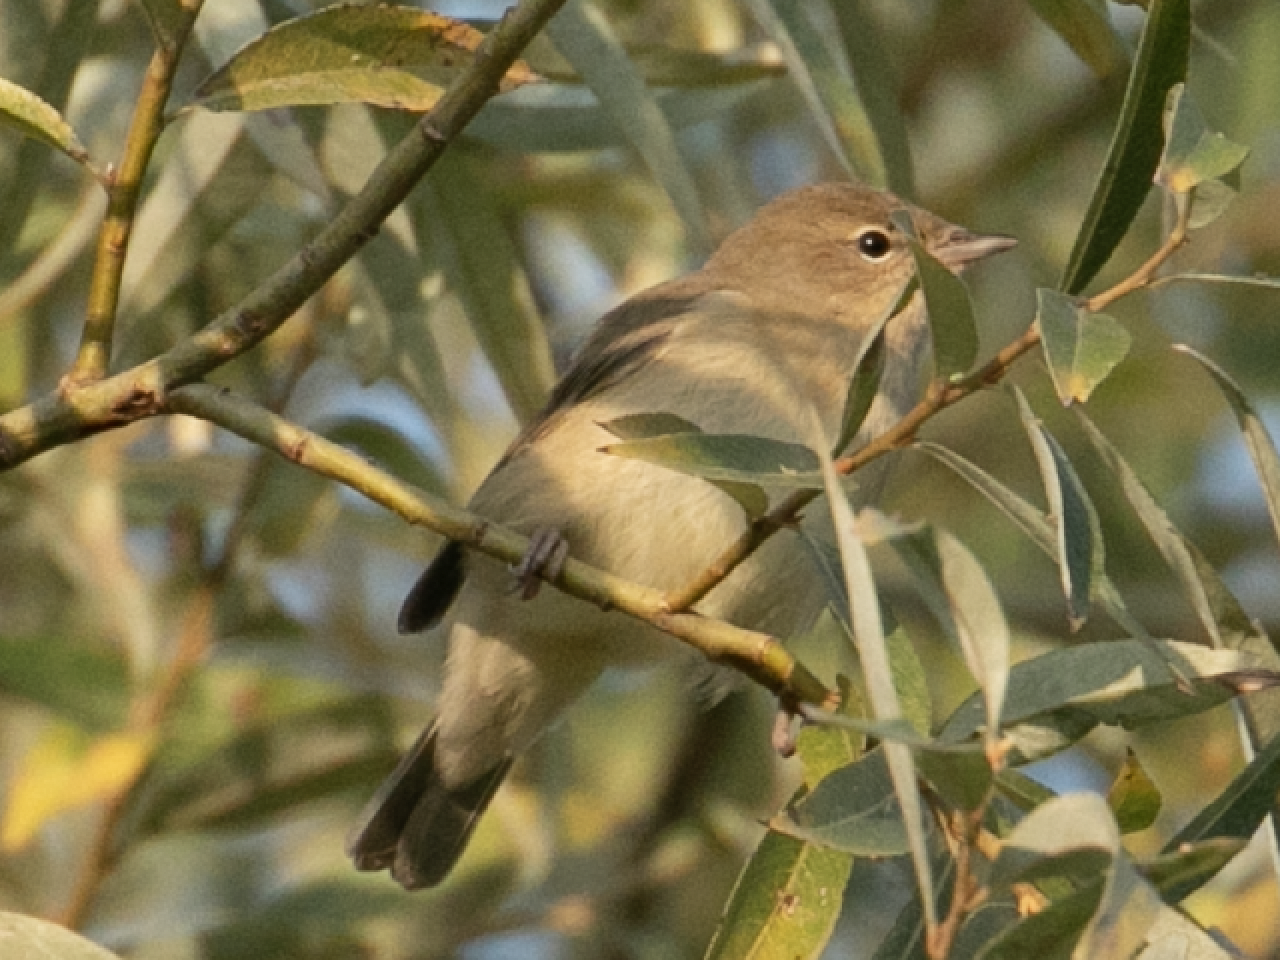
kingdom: Animalia
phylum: Chordata
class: Aves
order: Passeriformes
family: Sylviidae
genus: Sylvia
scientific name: Sylvia borin
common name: Garden warbler
